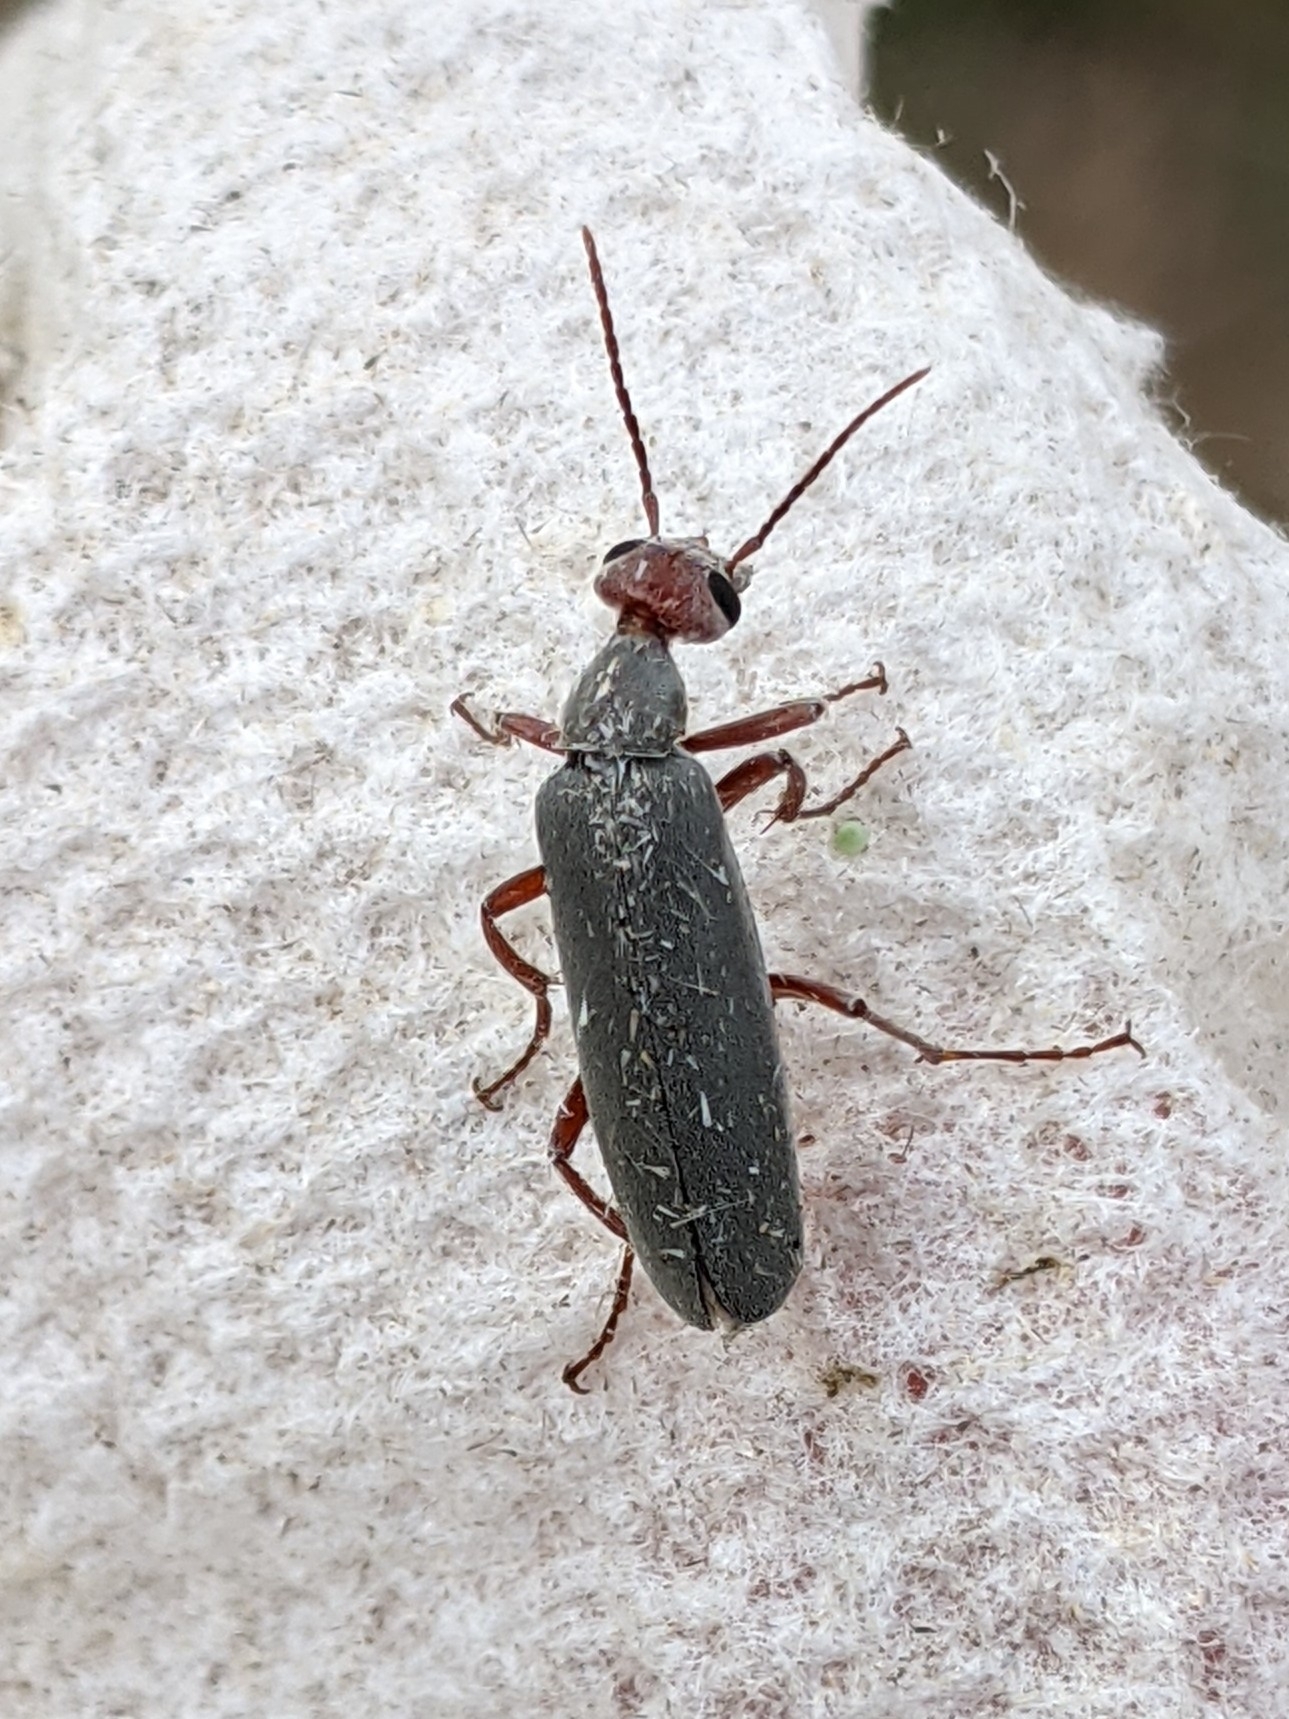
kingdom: Animalia
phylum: Arthropoda
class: Insecta
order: Coleoptera
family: Meloidae
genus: Epicauta
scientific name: Epicauta tenella
